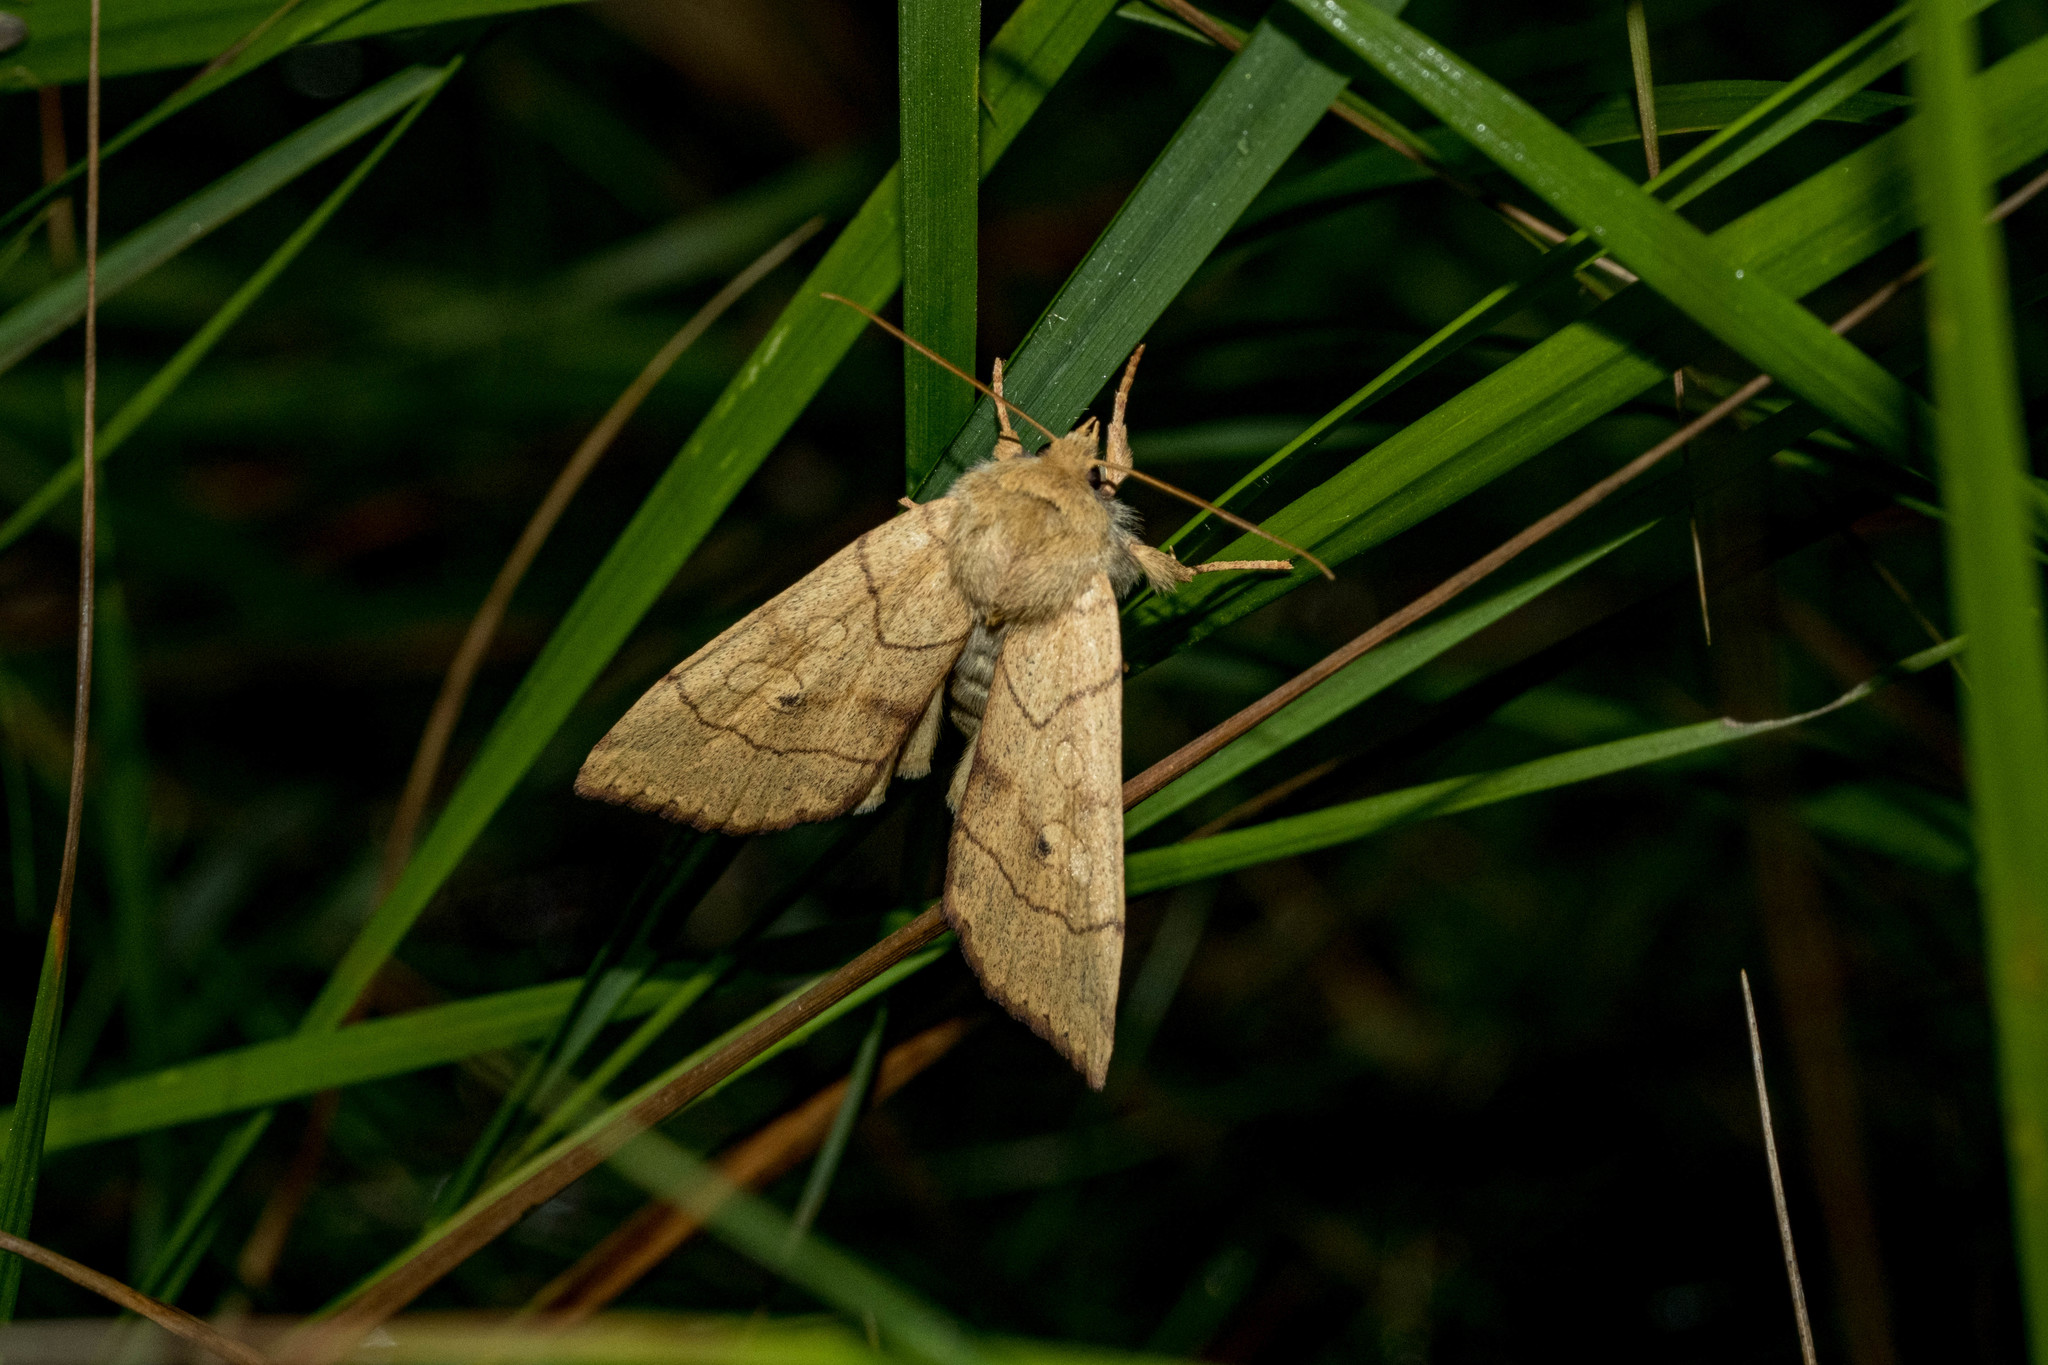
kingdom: Animalia
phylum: Arthropoda
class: Insecta
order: Lepidoptera
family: Noctuidae
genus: Enargia
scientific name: Enargia paleacea
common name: Angle-striped sallow
